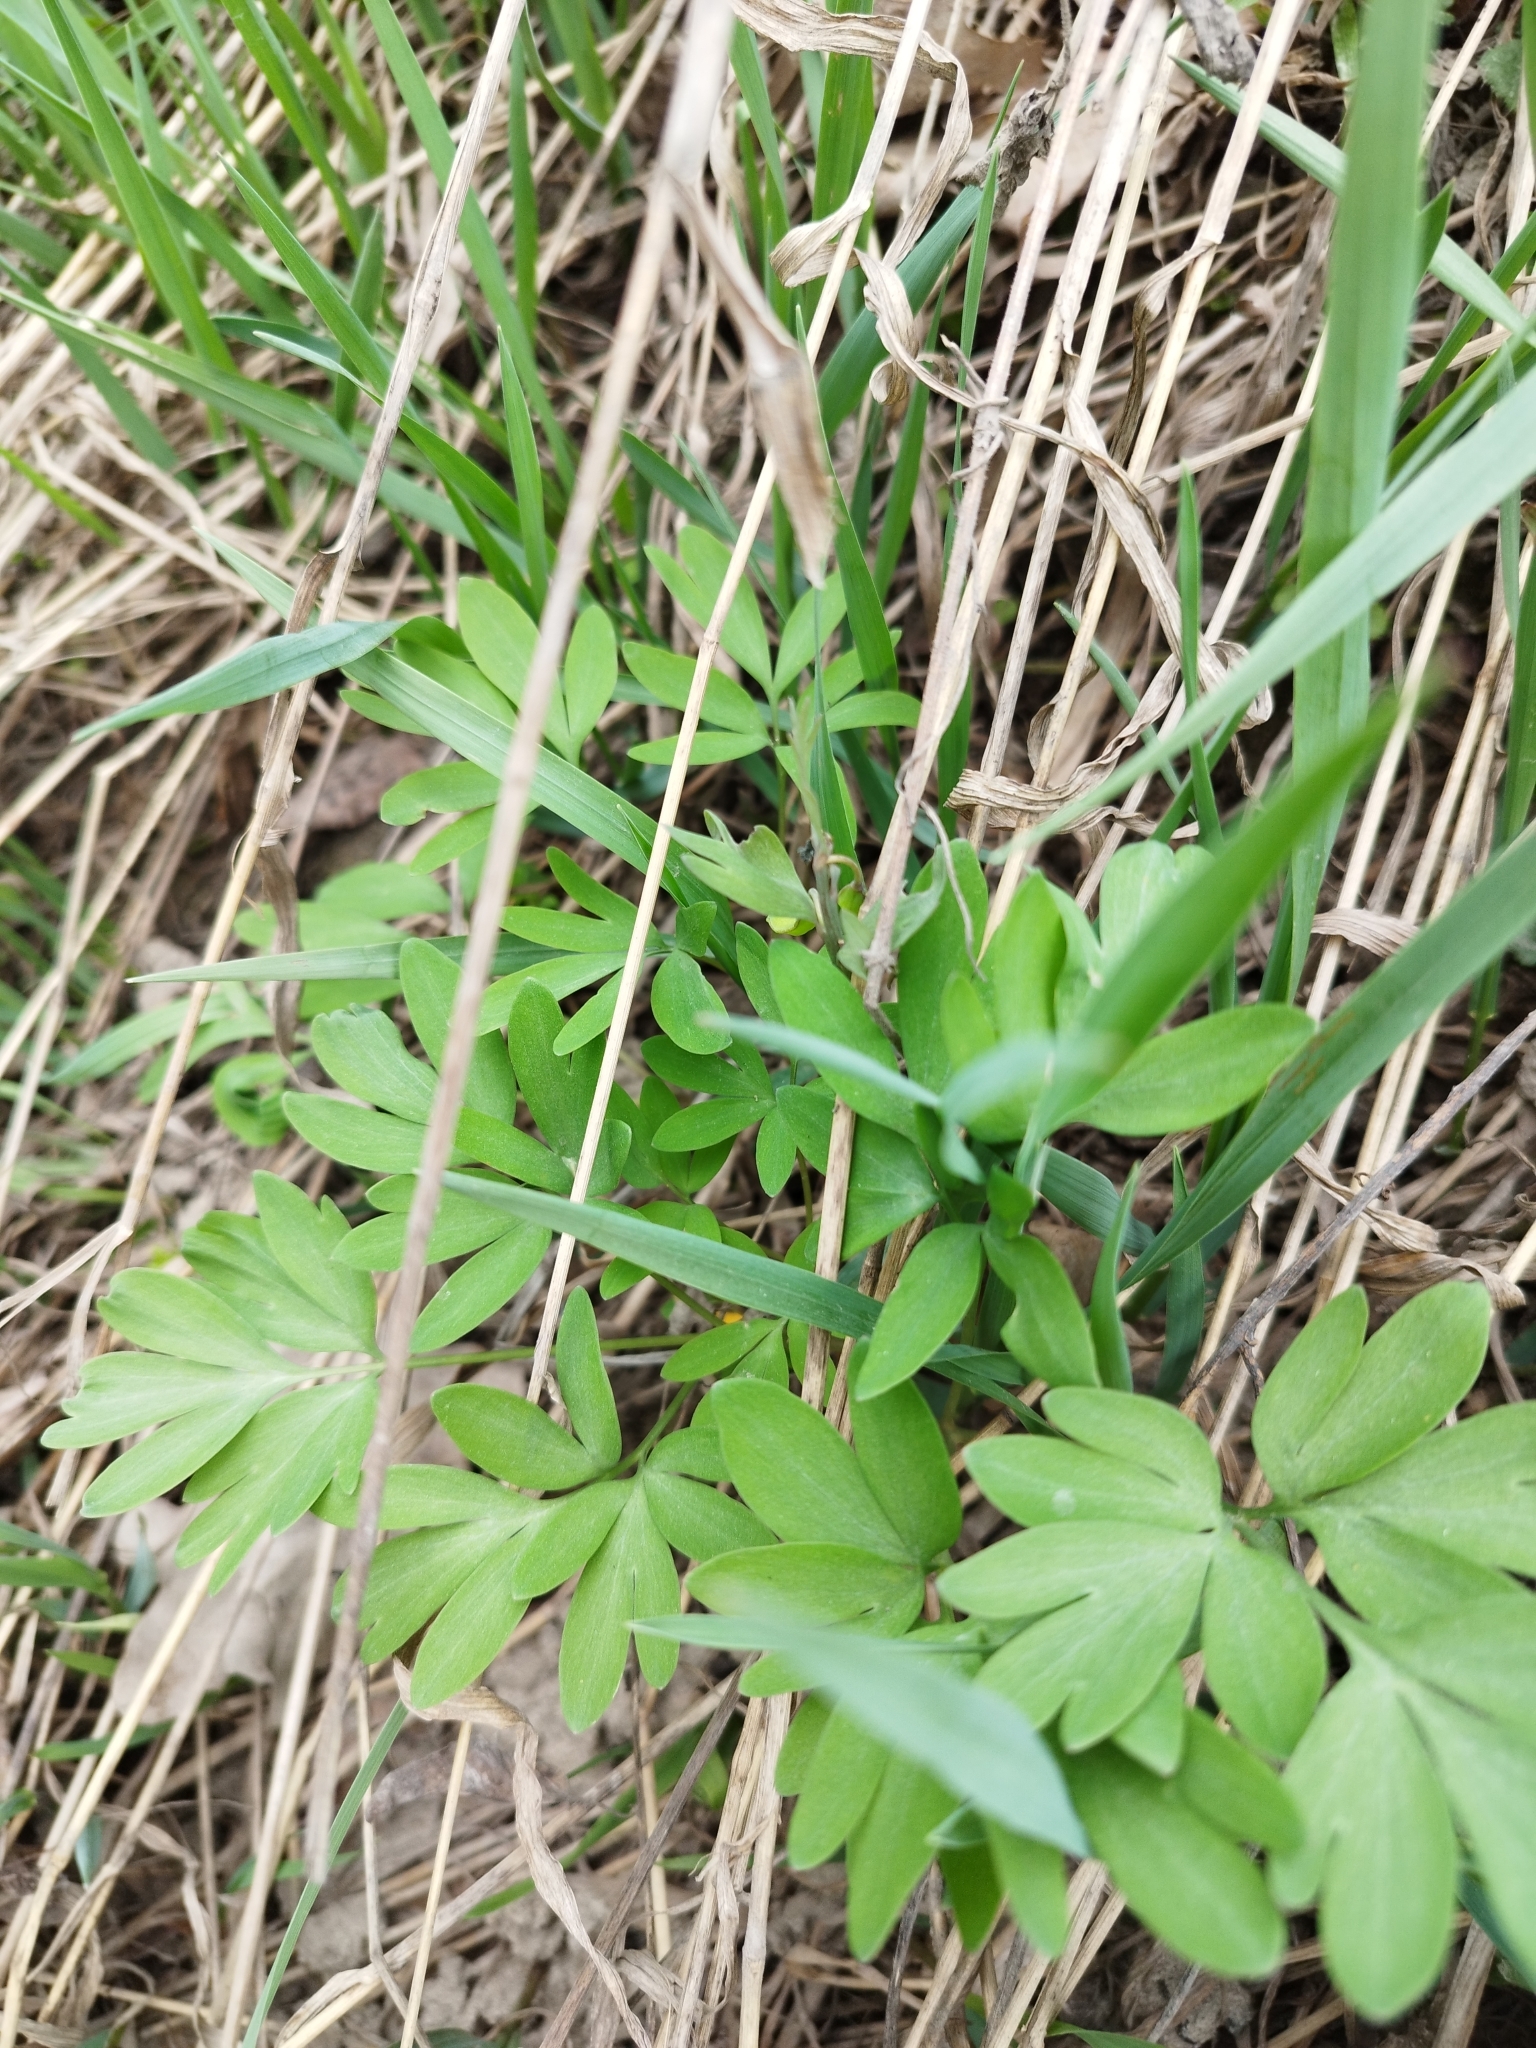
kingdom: Plantae
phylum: Tracheophyta
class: Magnoliopsida
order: Ranunculales
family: Papaveraceae
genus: Corydalis
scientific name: Corydalis solida
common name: Bird-in-a-bush
